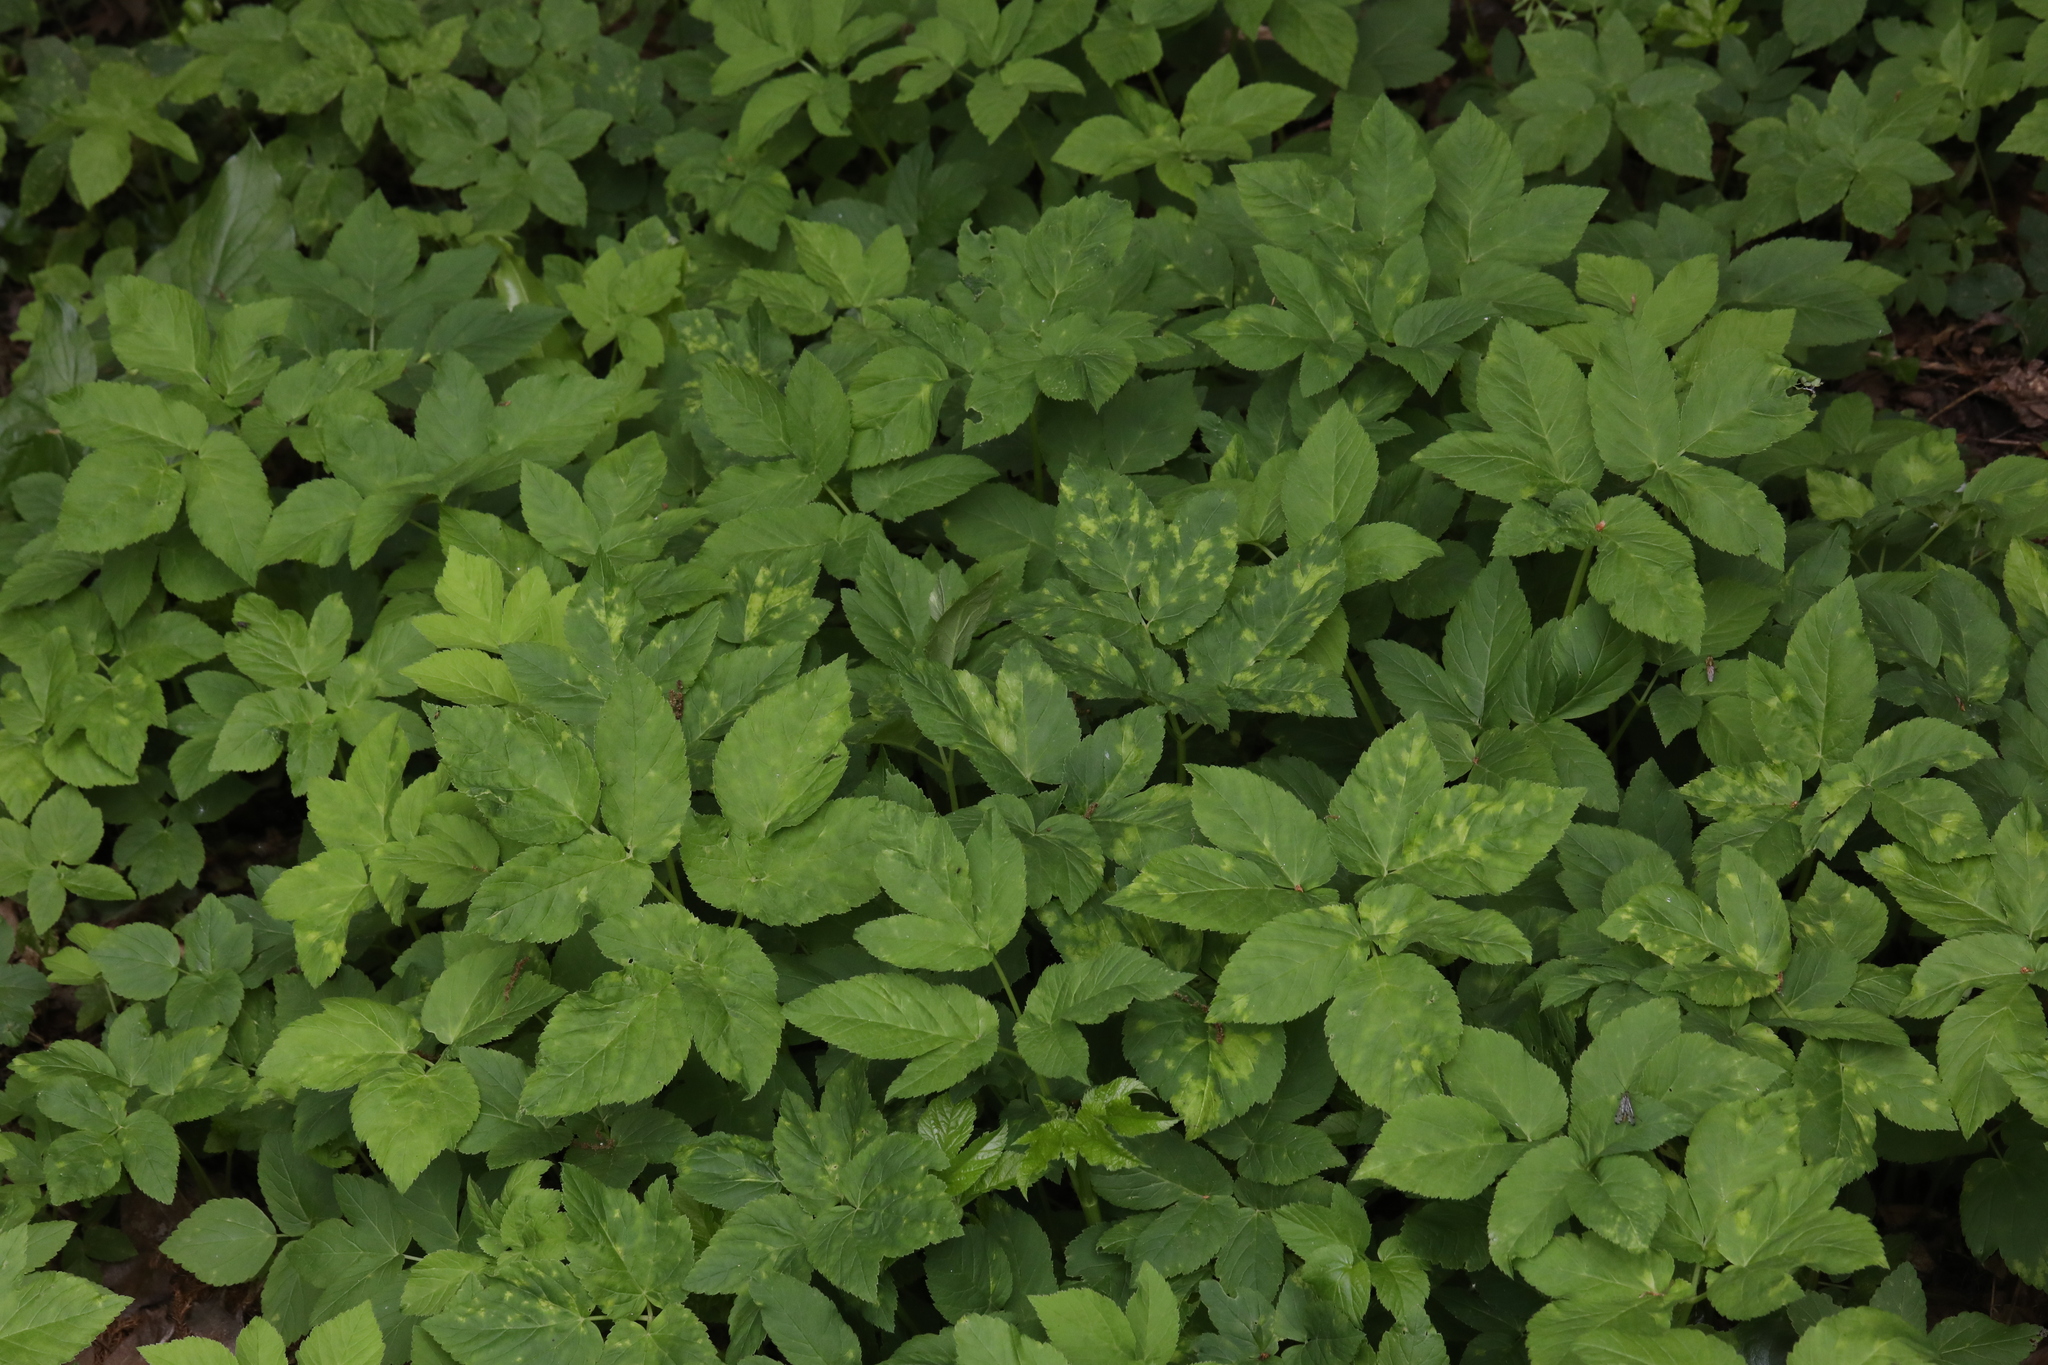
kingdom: Plantae
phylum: Tracheophyta
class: Magnoliopsida
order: Apiales
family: Apiaceae
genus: Aegopodium
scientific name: Aegopodium podagraria
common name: Ground-elder
